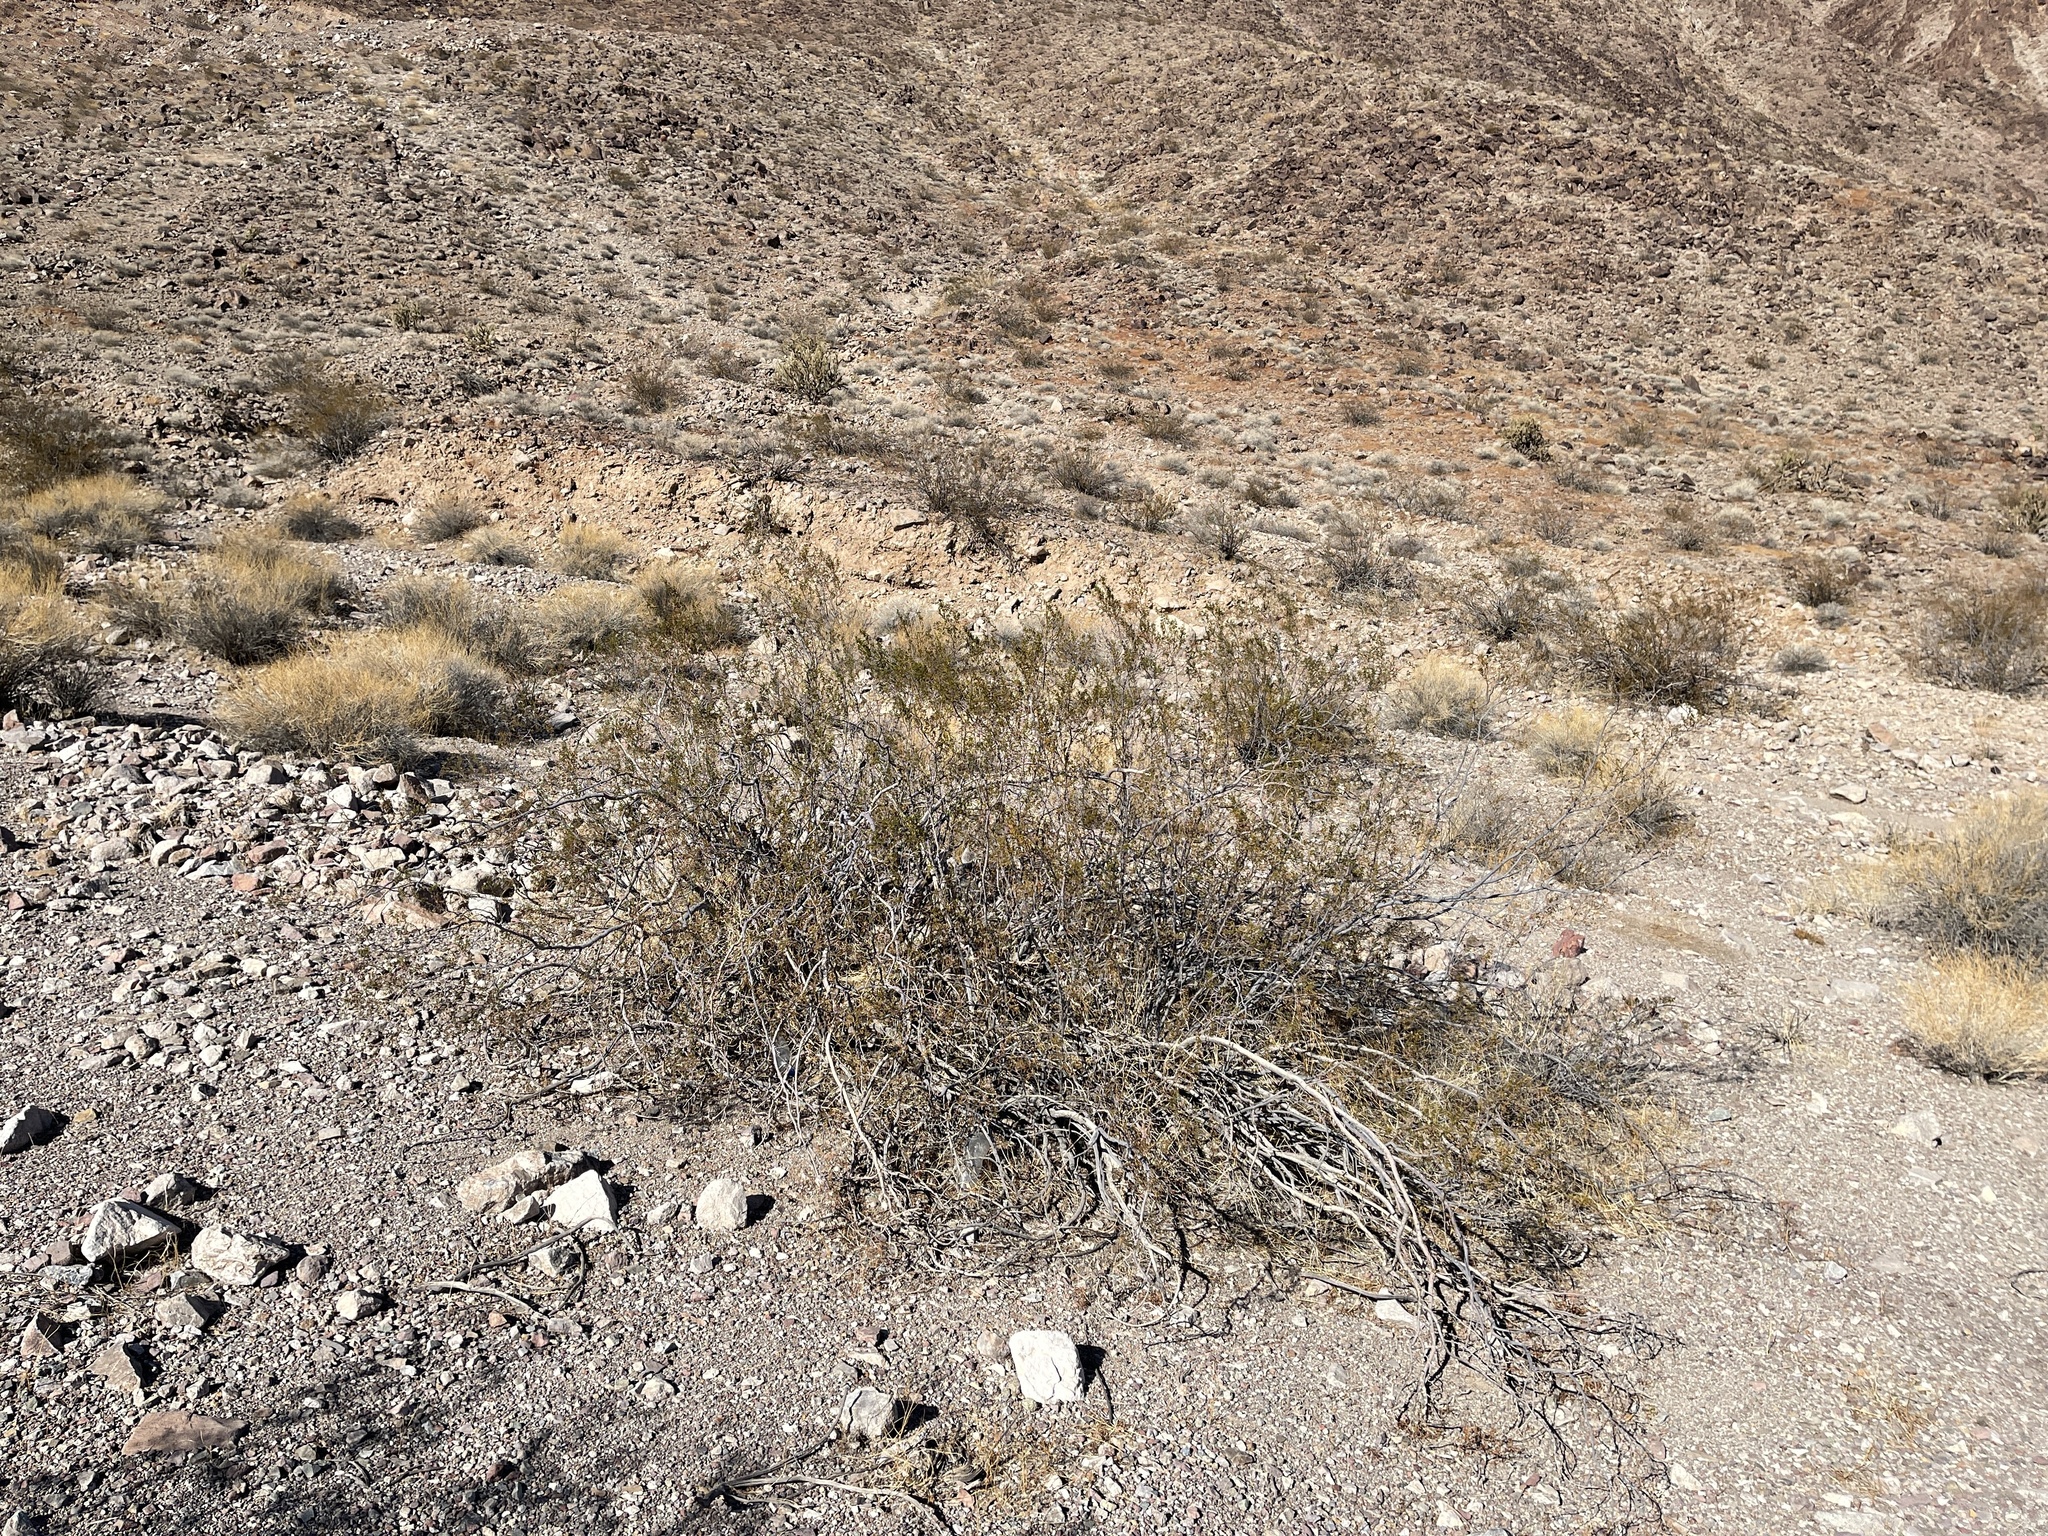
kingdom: Plantae
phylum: Tracheophyta
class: Magnoliopsida
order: Zygophyllales
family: Zygophyllaceae
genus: Larrea
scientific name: Larrea tridentata
